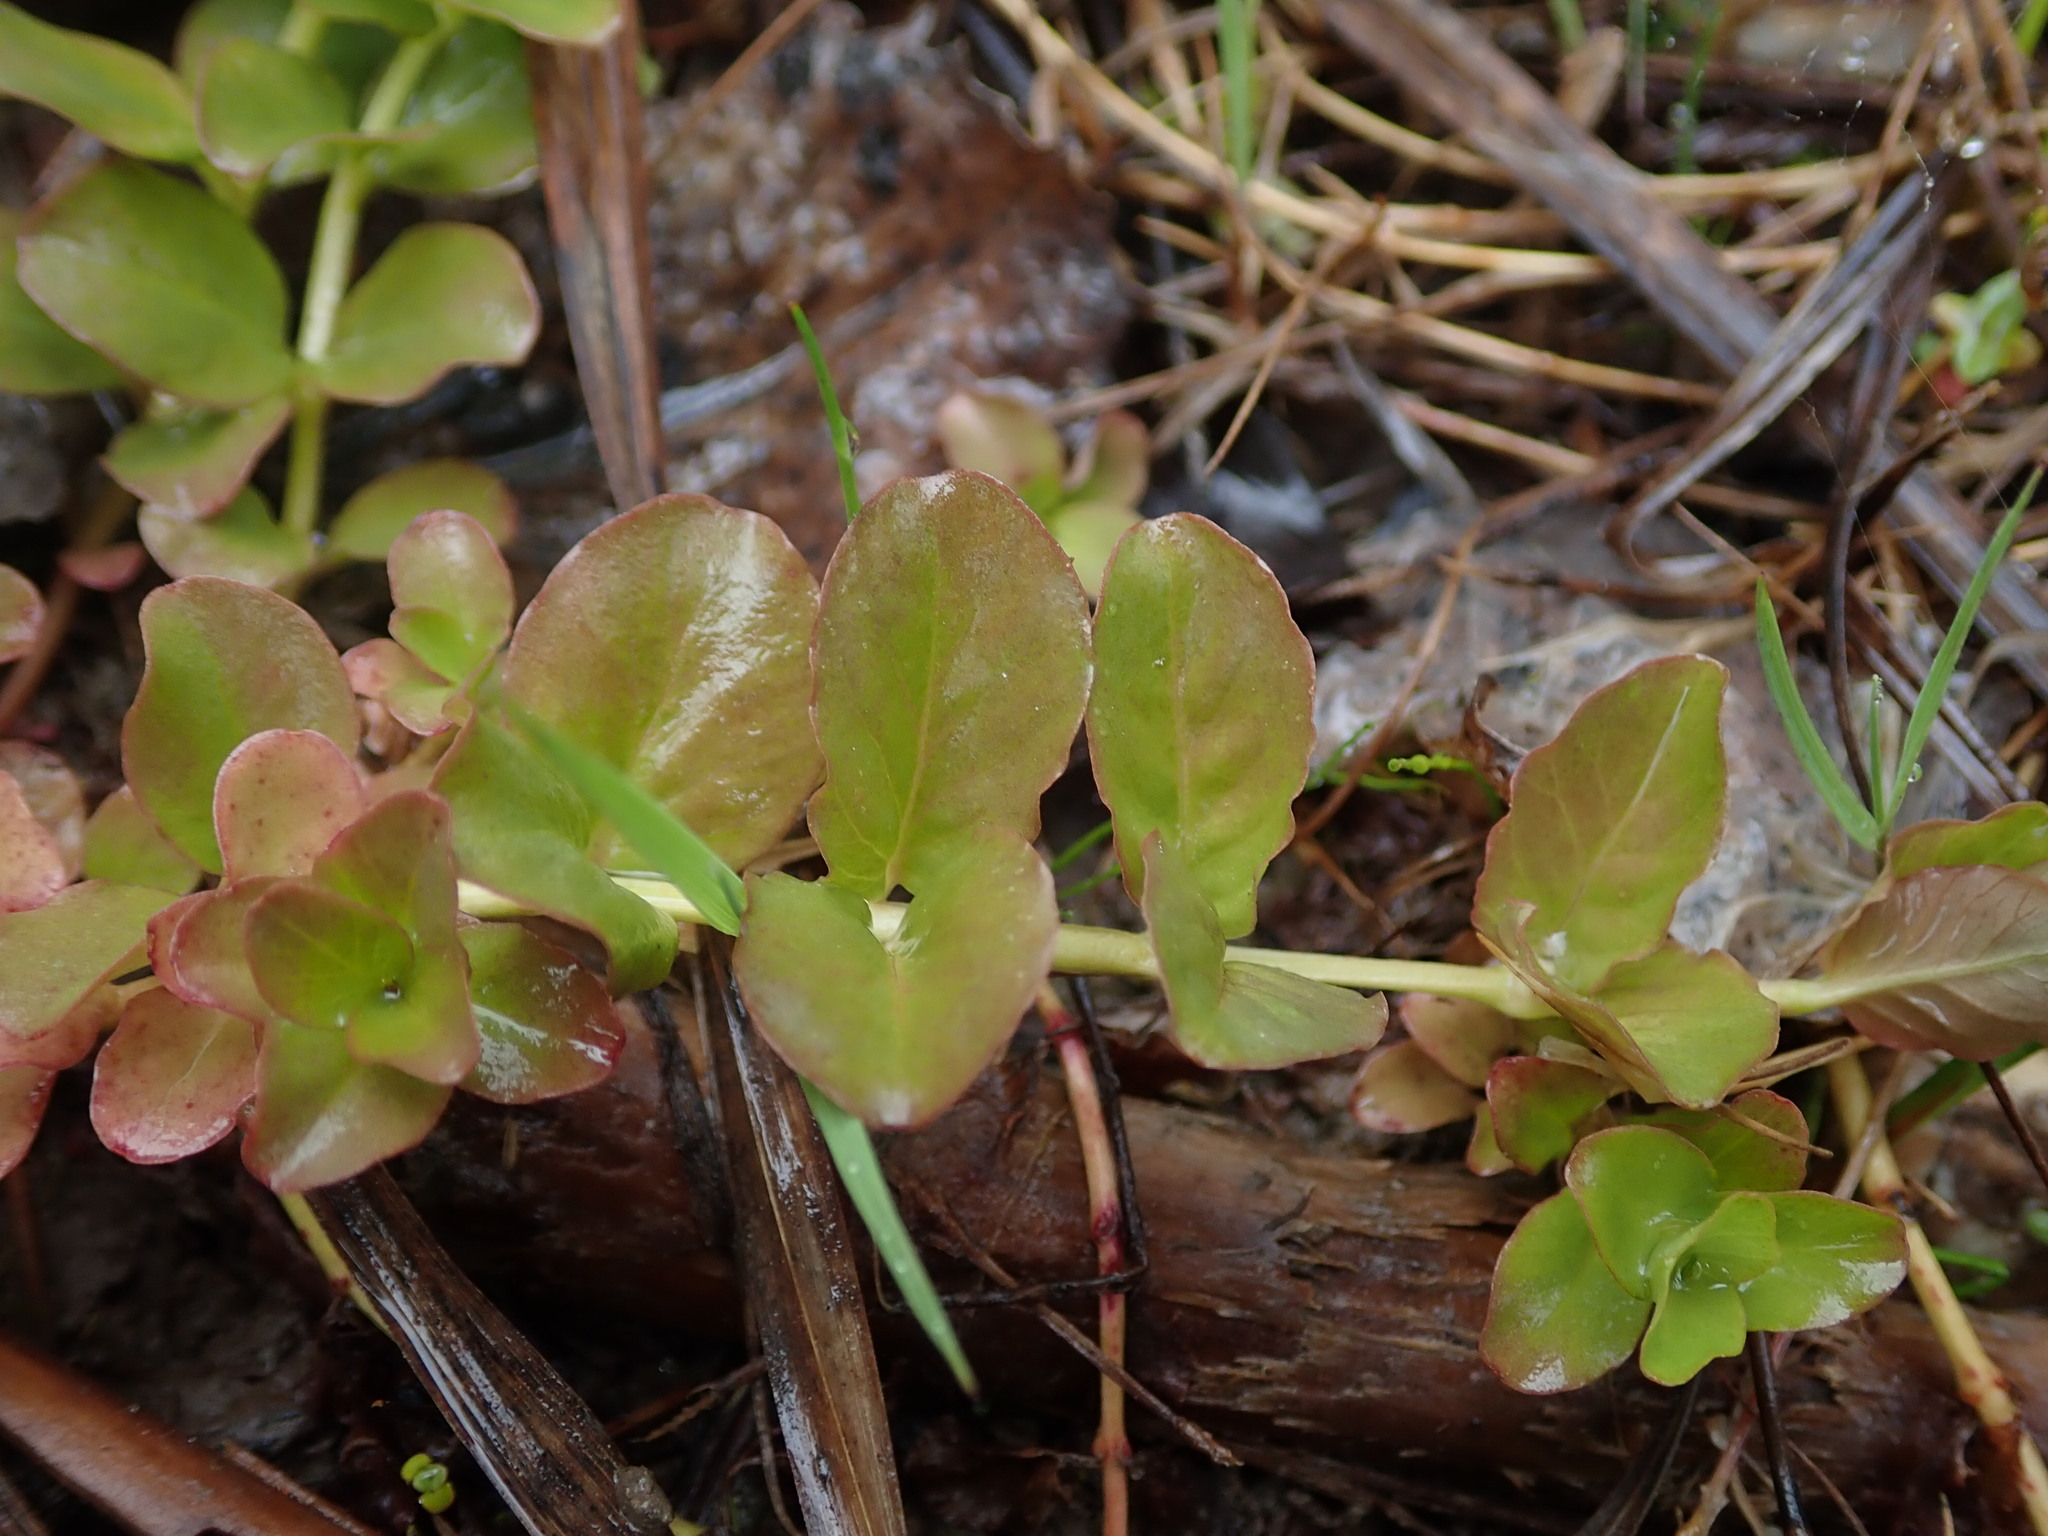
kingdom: Plantae
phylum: Tracheophyta
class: Magnoliopsida
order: Ericales
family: Primulaceae
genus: Lysimachia
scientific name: Lysimachia nummularia
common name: Moneywort
